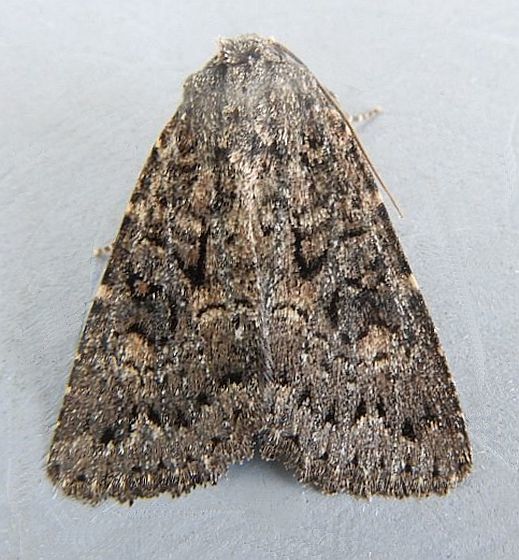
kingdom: Animalia
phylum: Arthropoda
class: Insecta
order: Lepidoptera
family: Noctuidae
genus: Aseptis
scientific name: Aseptis fumeola
